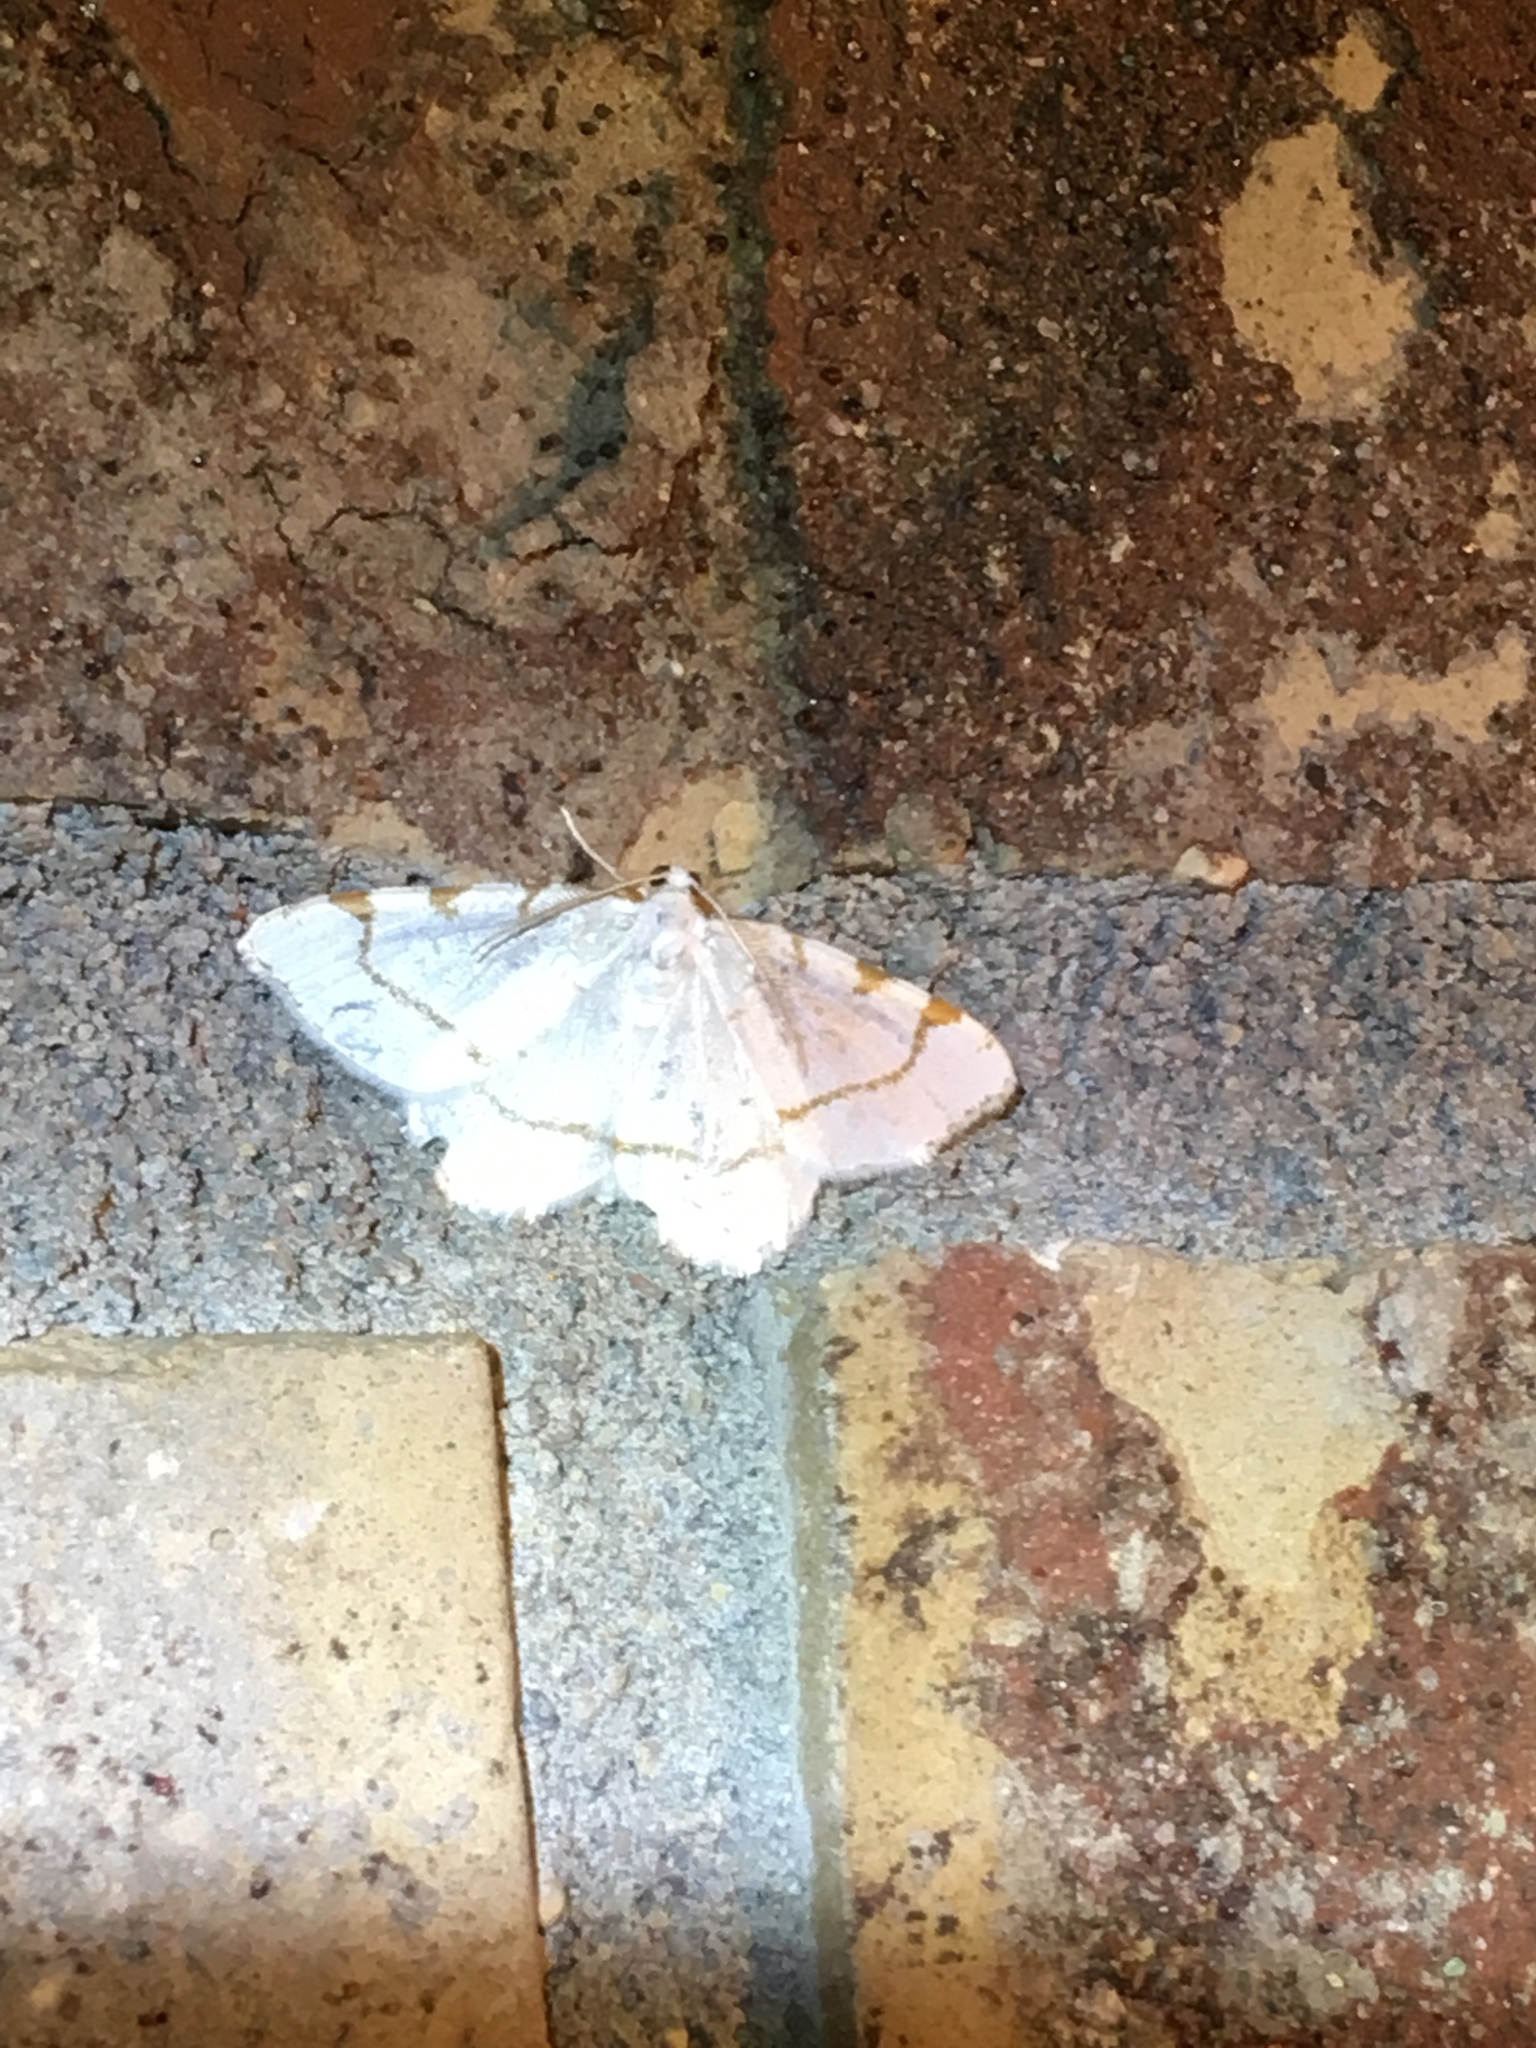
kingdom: Animalia
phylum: Arthropoda
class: Insecta
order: Lepidoptera
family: Geometridae
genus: Macaria
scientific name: Macaria pustularia
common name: Lesser maple spanworm moth
